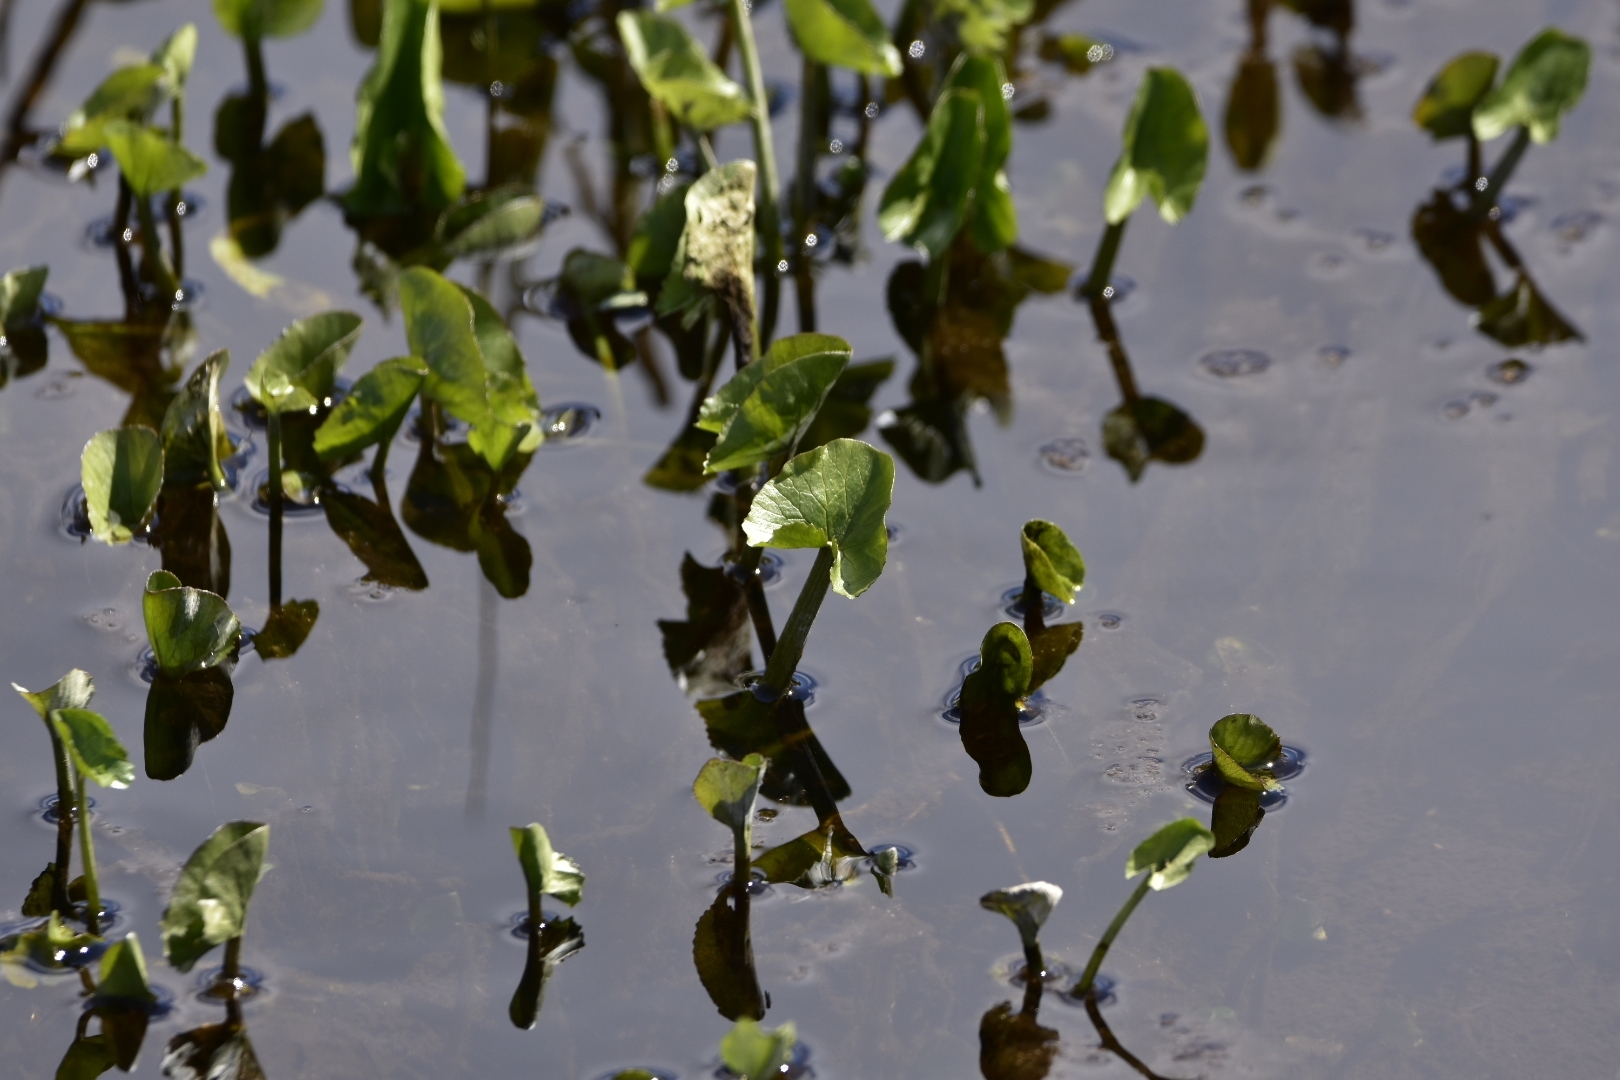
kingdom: Plantae
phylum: Tracheophyta
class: Magnoliopsida
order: Ranunculales
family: Ranunculaceae
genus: Caltha
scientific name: Caltha palustris
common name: Marsh marigold
